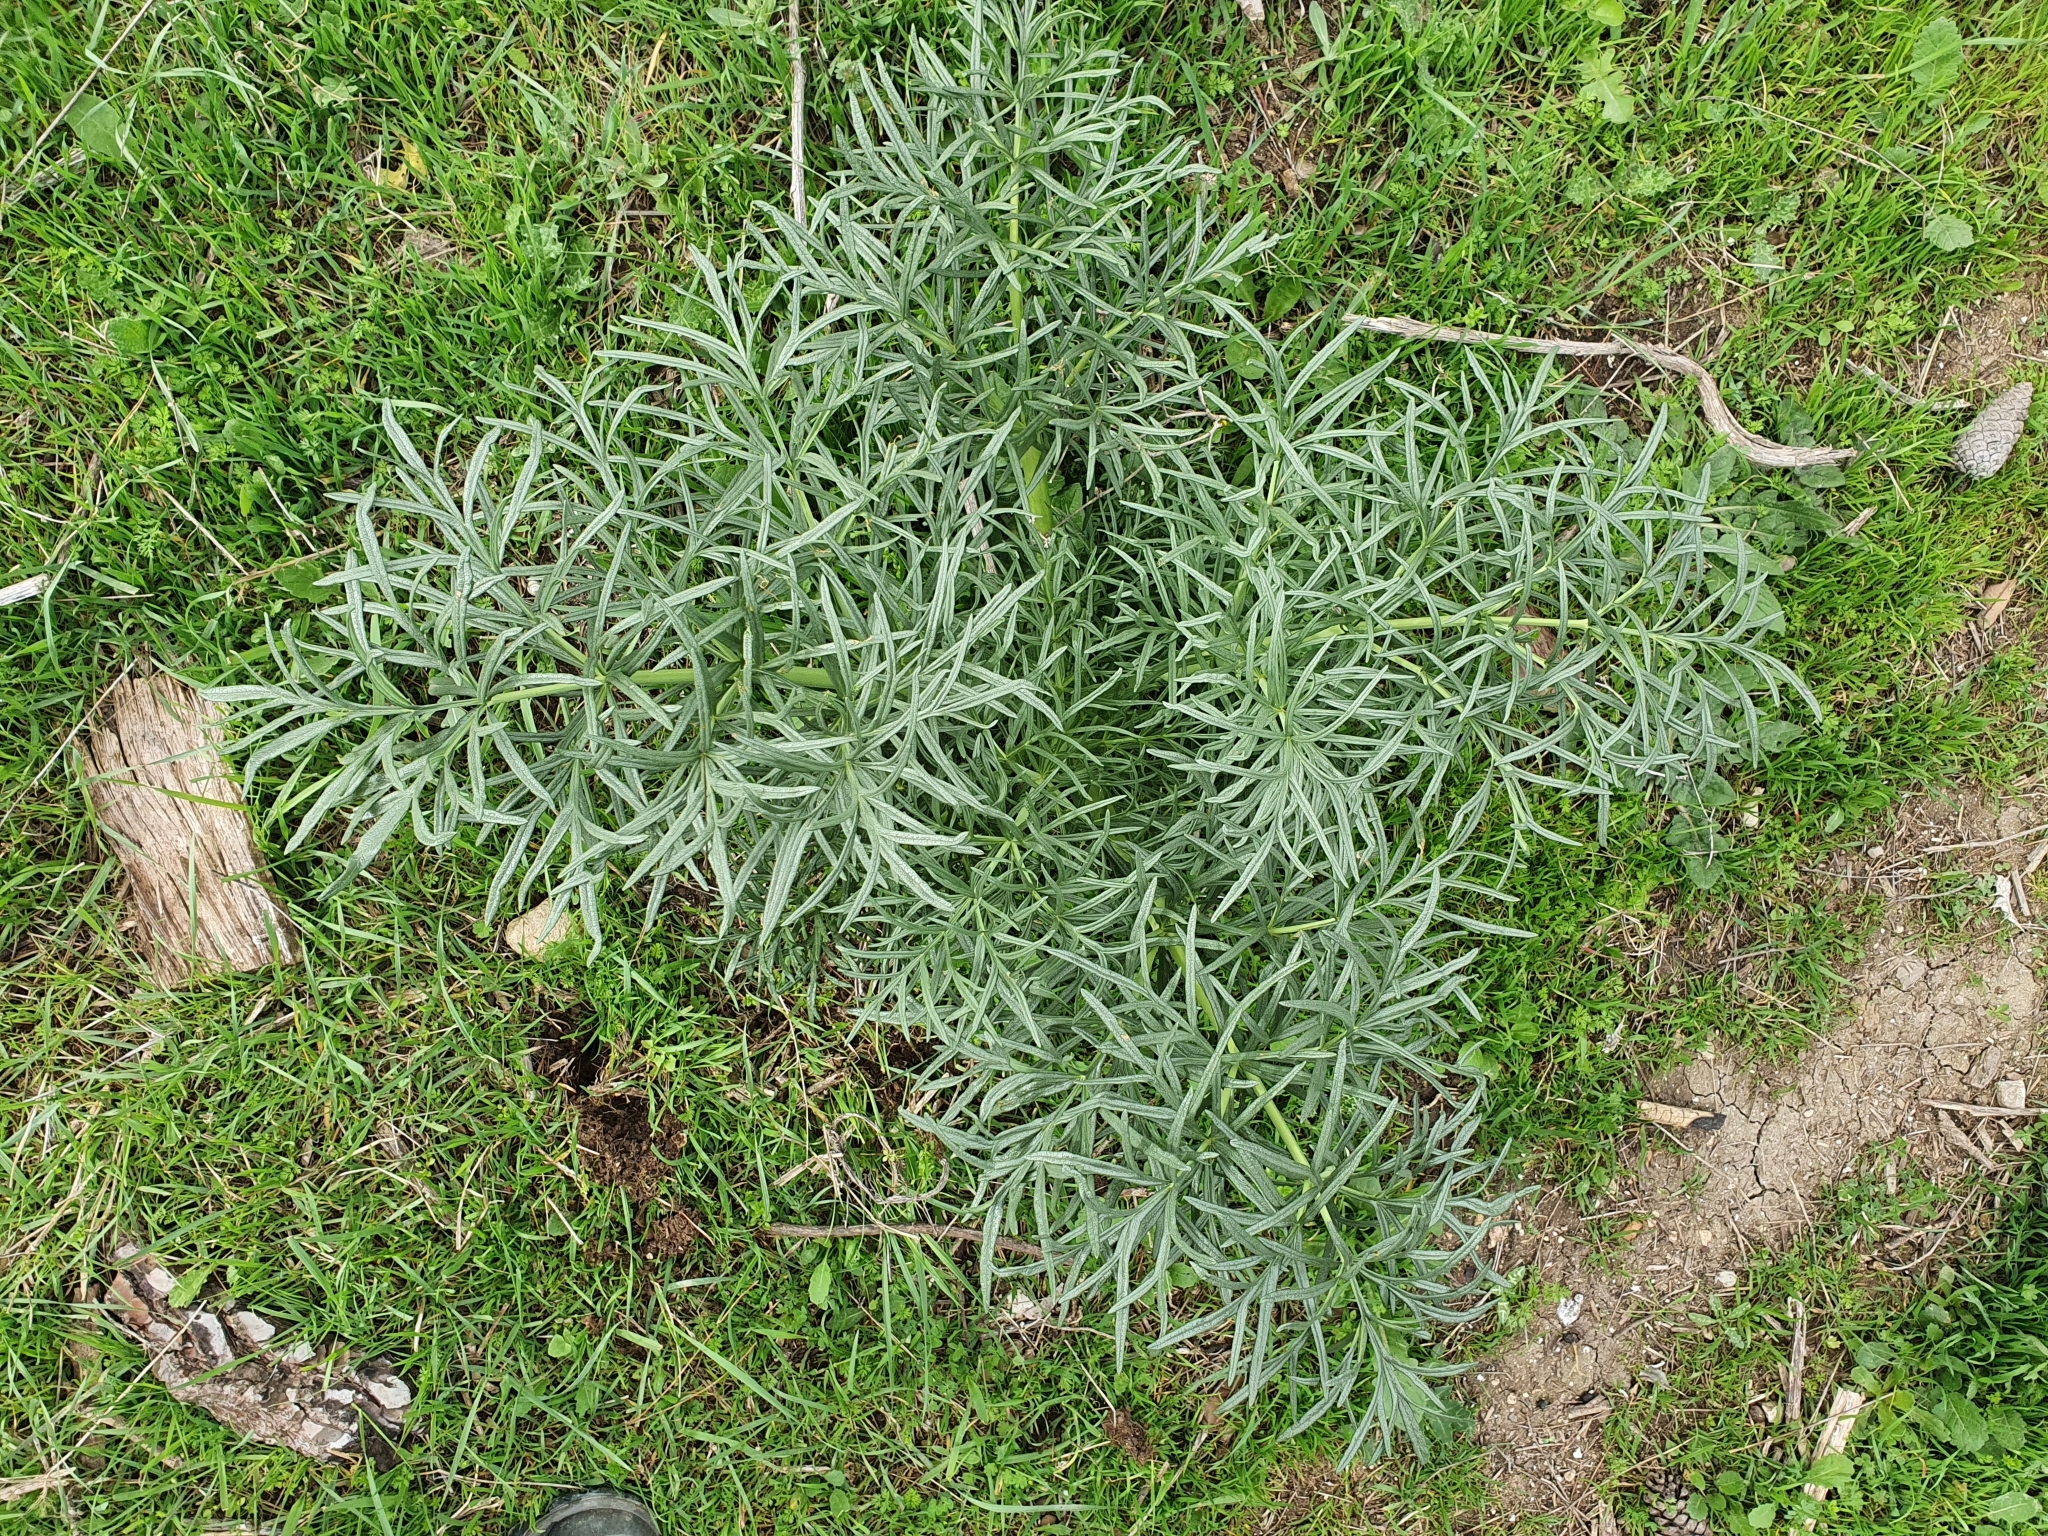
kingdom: Plantae
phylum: Tracheophyta
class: Magnoliopsida
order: Apiales
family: Apiaceae
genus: Thapsia
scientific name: Thapsia garganica
